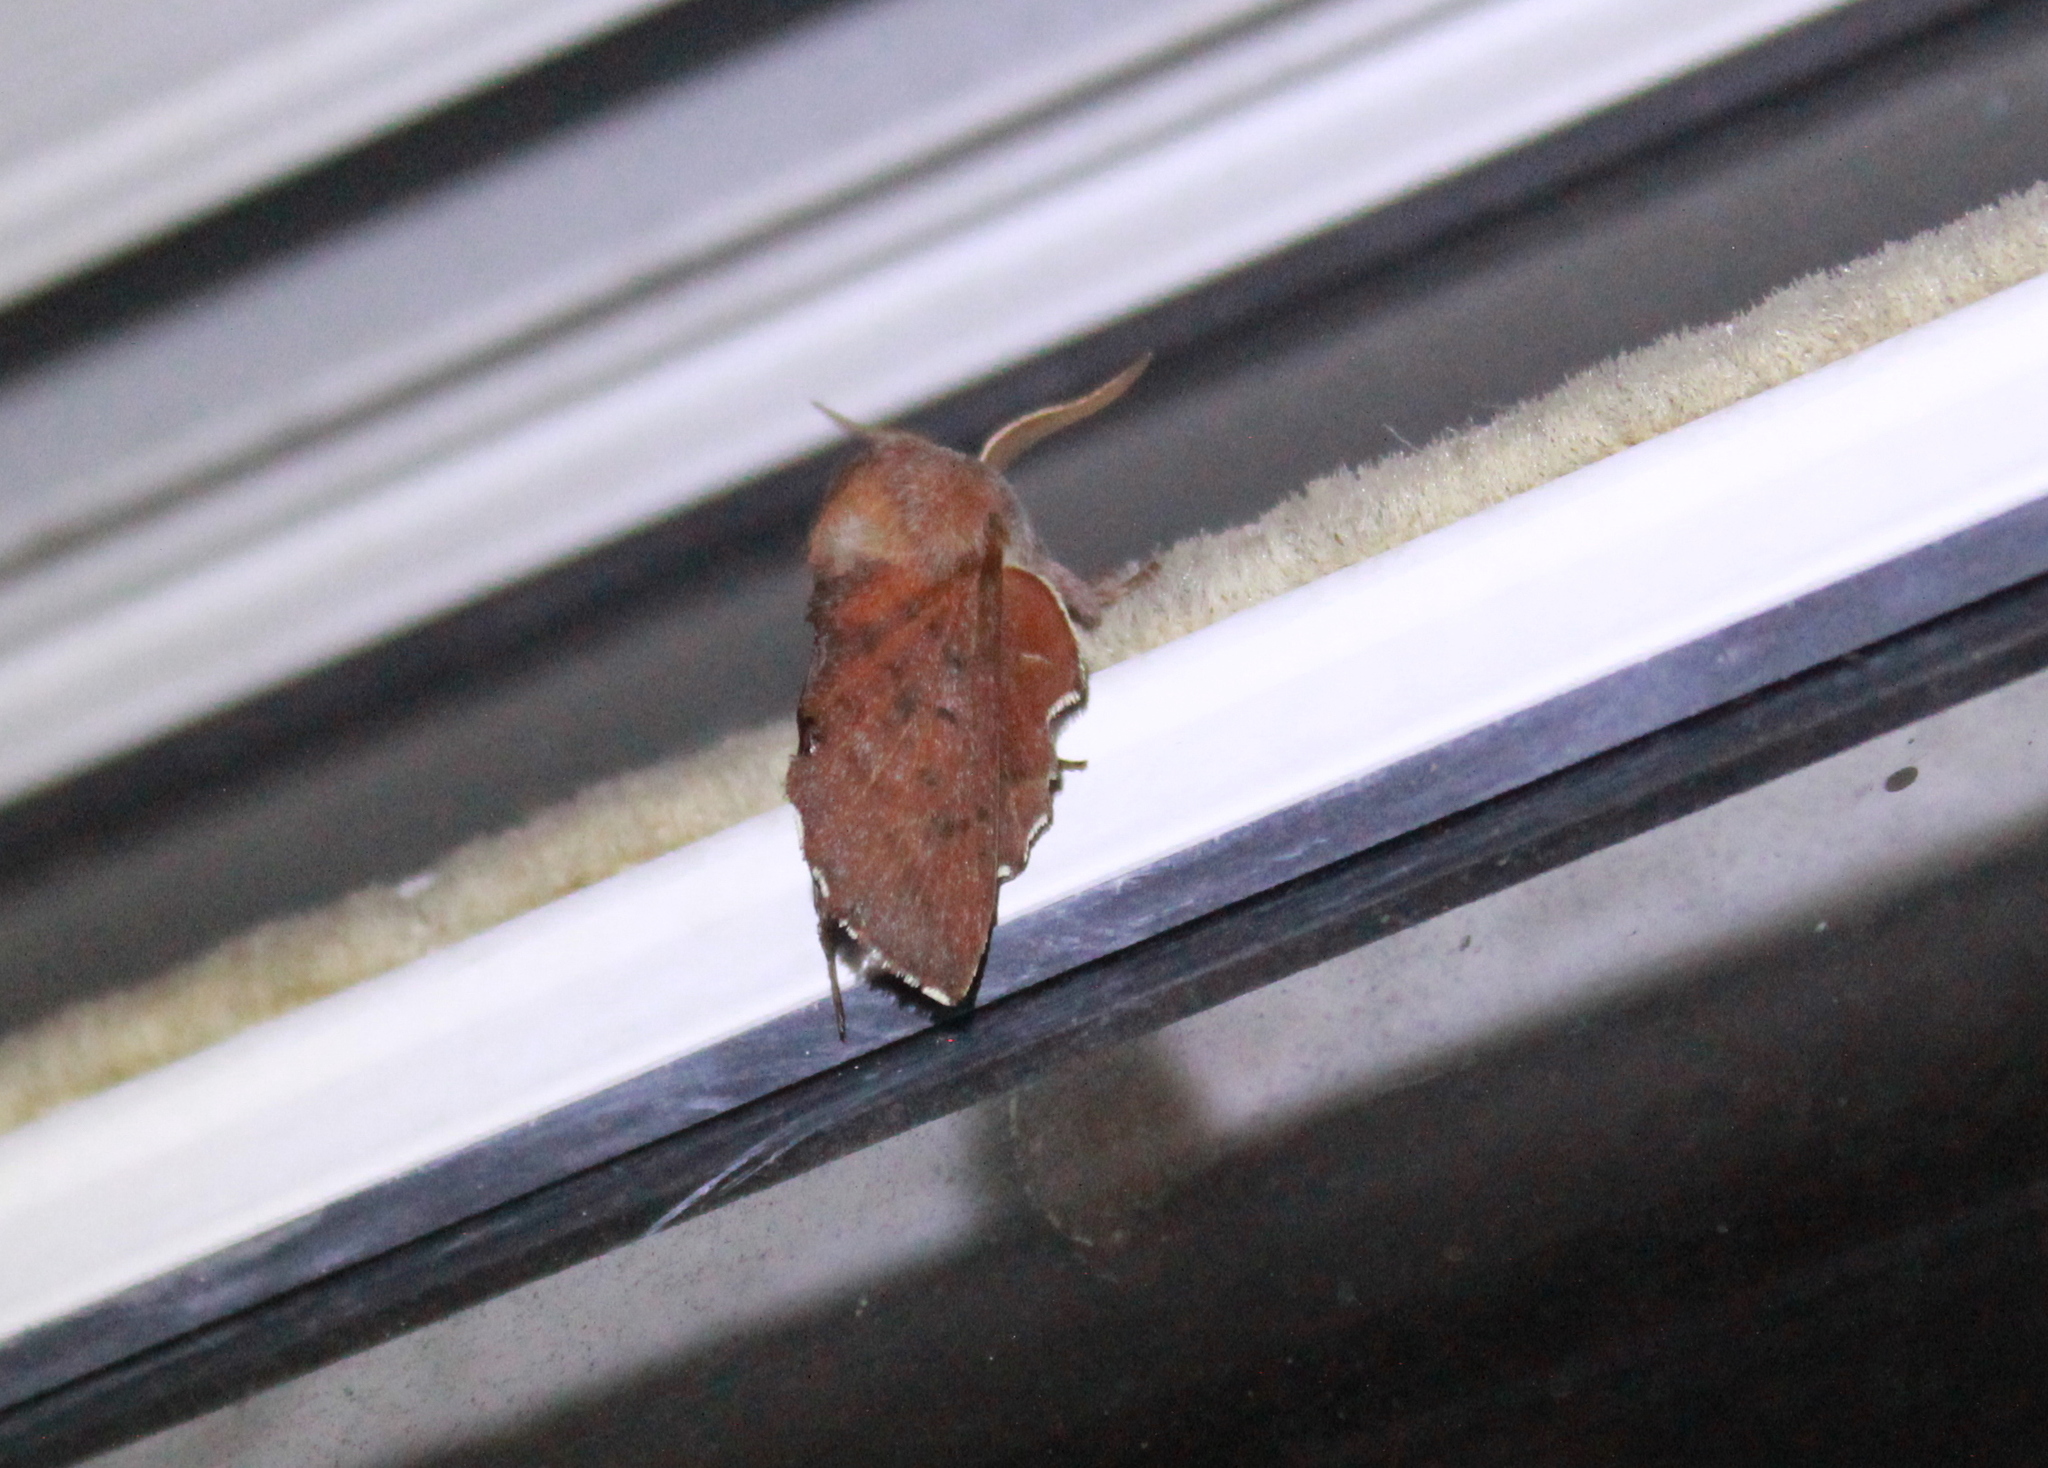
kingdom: Animalia
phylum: Arthropoda
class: Insecta
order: Lepidoptera
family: Lasiocampidae
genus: Phyllodesma
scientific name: Phyllodesma americana
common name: American lappet moth
